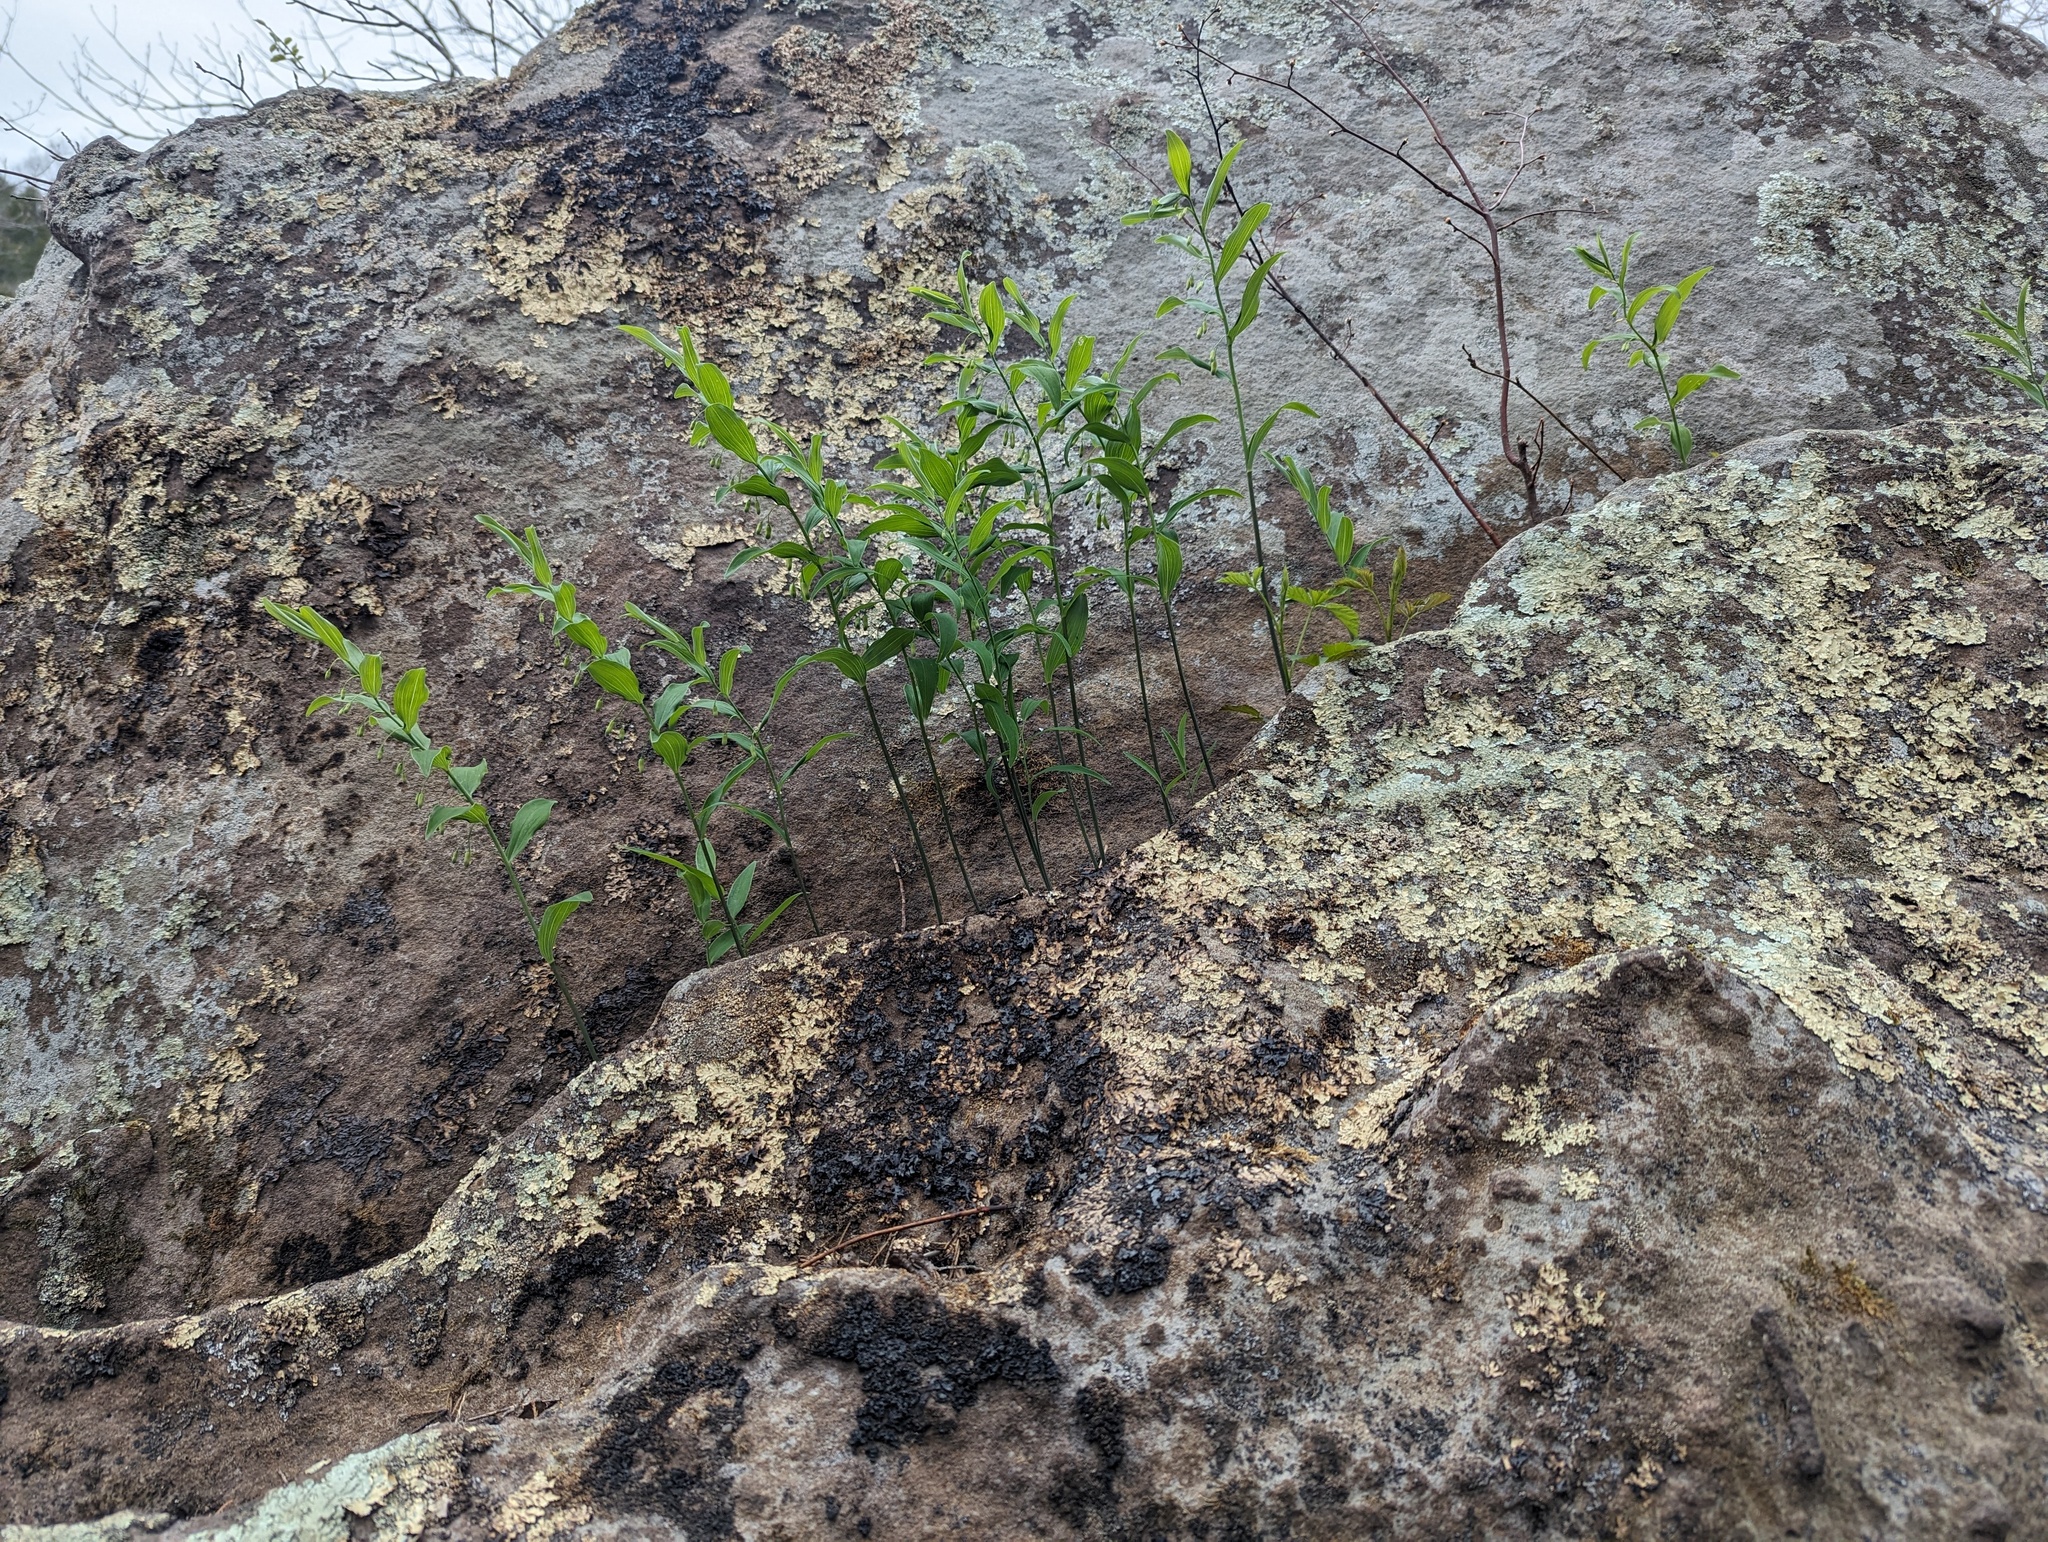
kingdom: Plantae
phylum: Tracheophyta
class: Liliopsida
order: Asparagales
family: Asparagaceae
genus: Polygonatum
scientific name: Polygonatum biflorum
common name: American solomon's-seal
